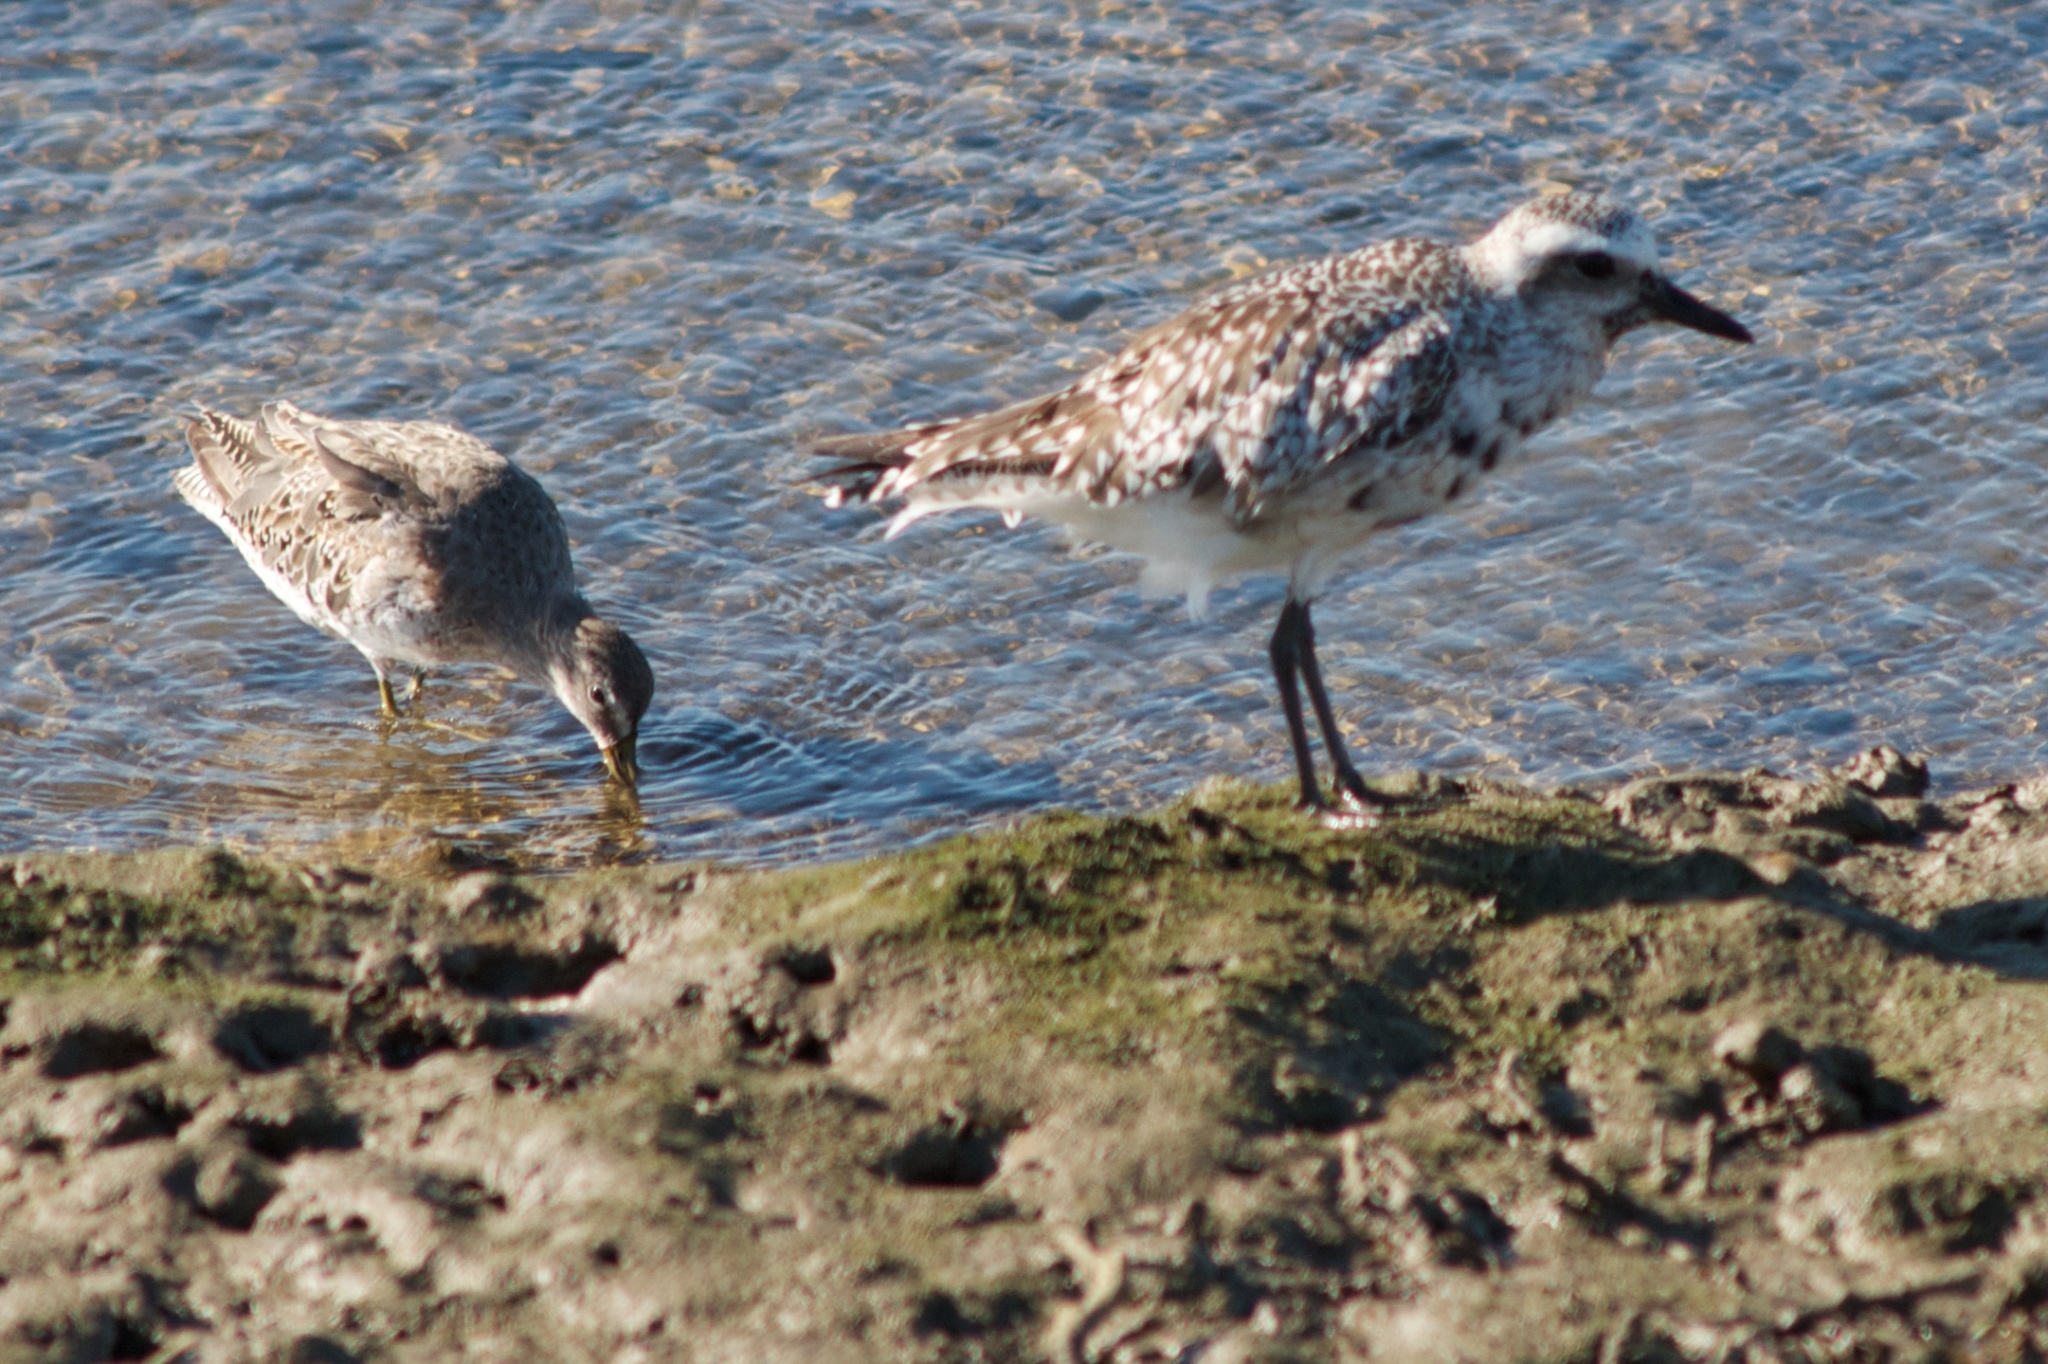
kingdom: Animalia
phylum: Chordata
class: Aves
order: Charadriiformes
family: Charadriidae
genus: Pluvialis
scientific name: Pluvialis squatarola
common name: Grey plover
